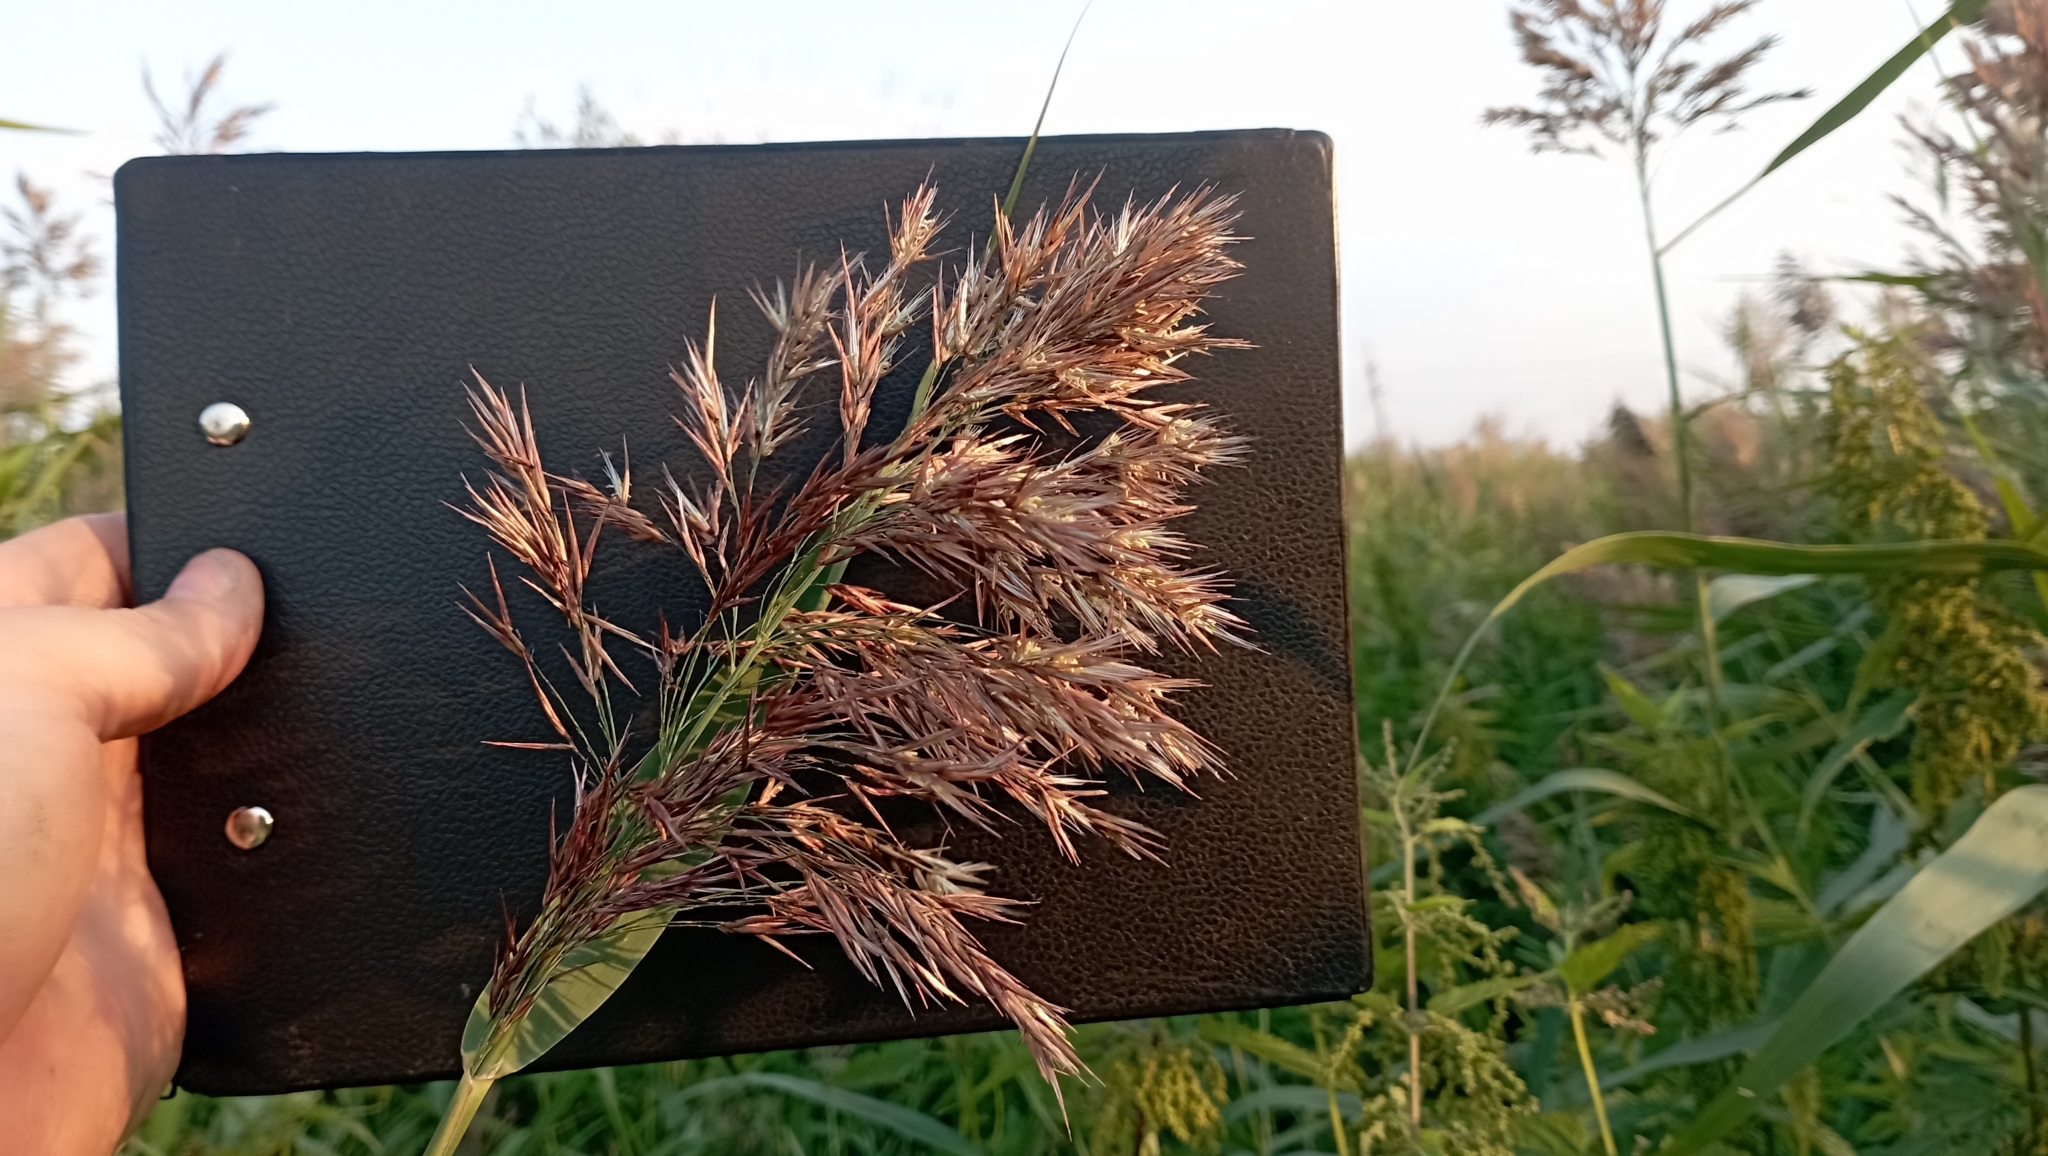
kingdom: Plantae
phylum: Tracheophyta
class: Liliopsida
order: Poales
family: Poaceae
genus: Phragmites
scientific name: Phragmites australis
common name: Common reed
